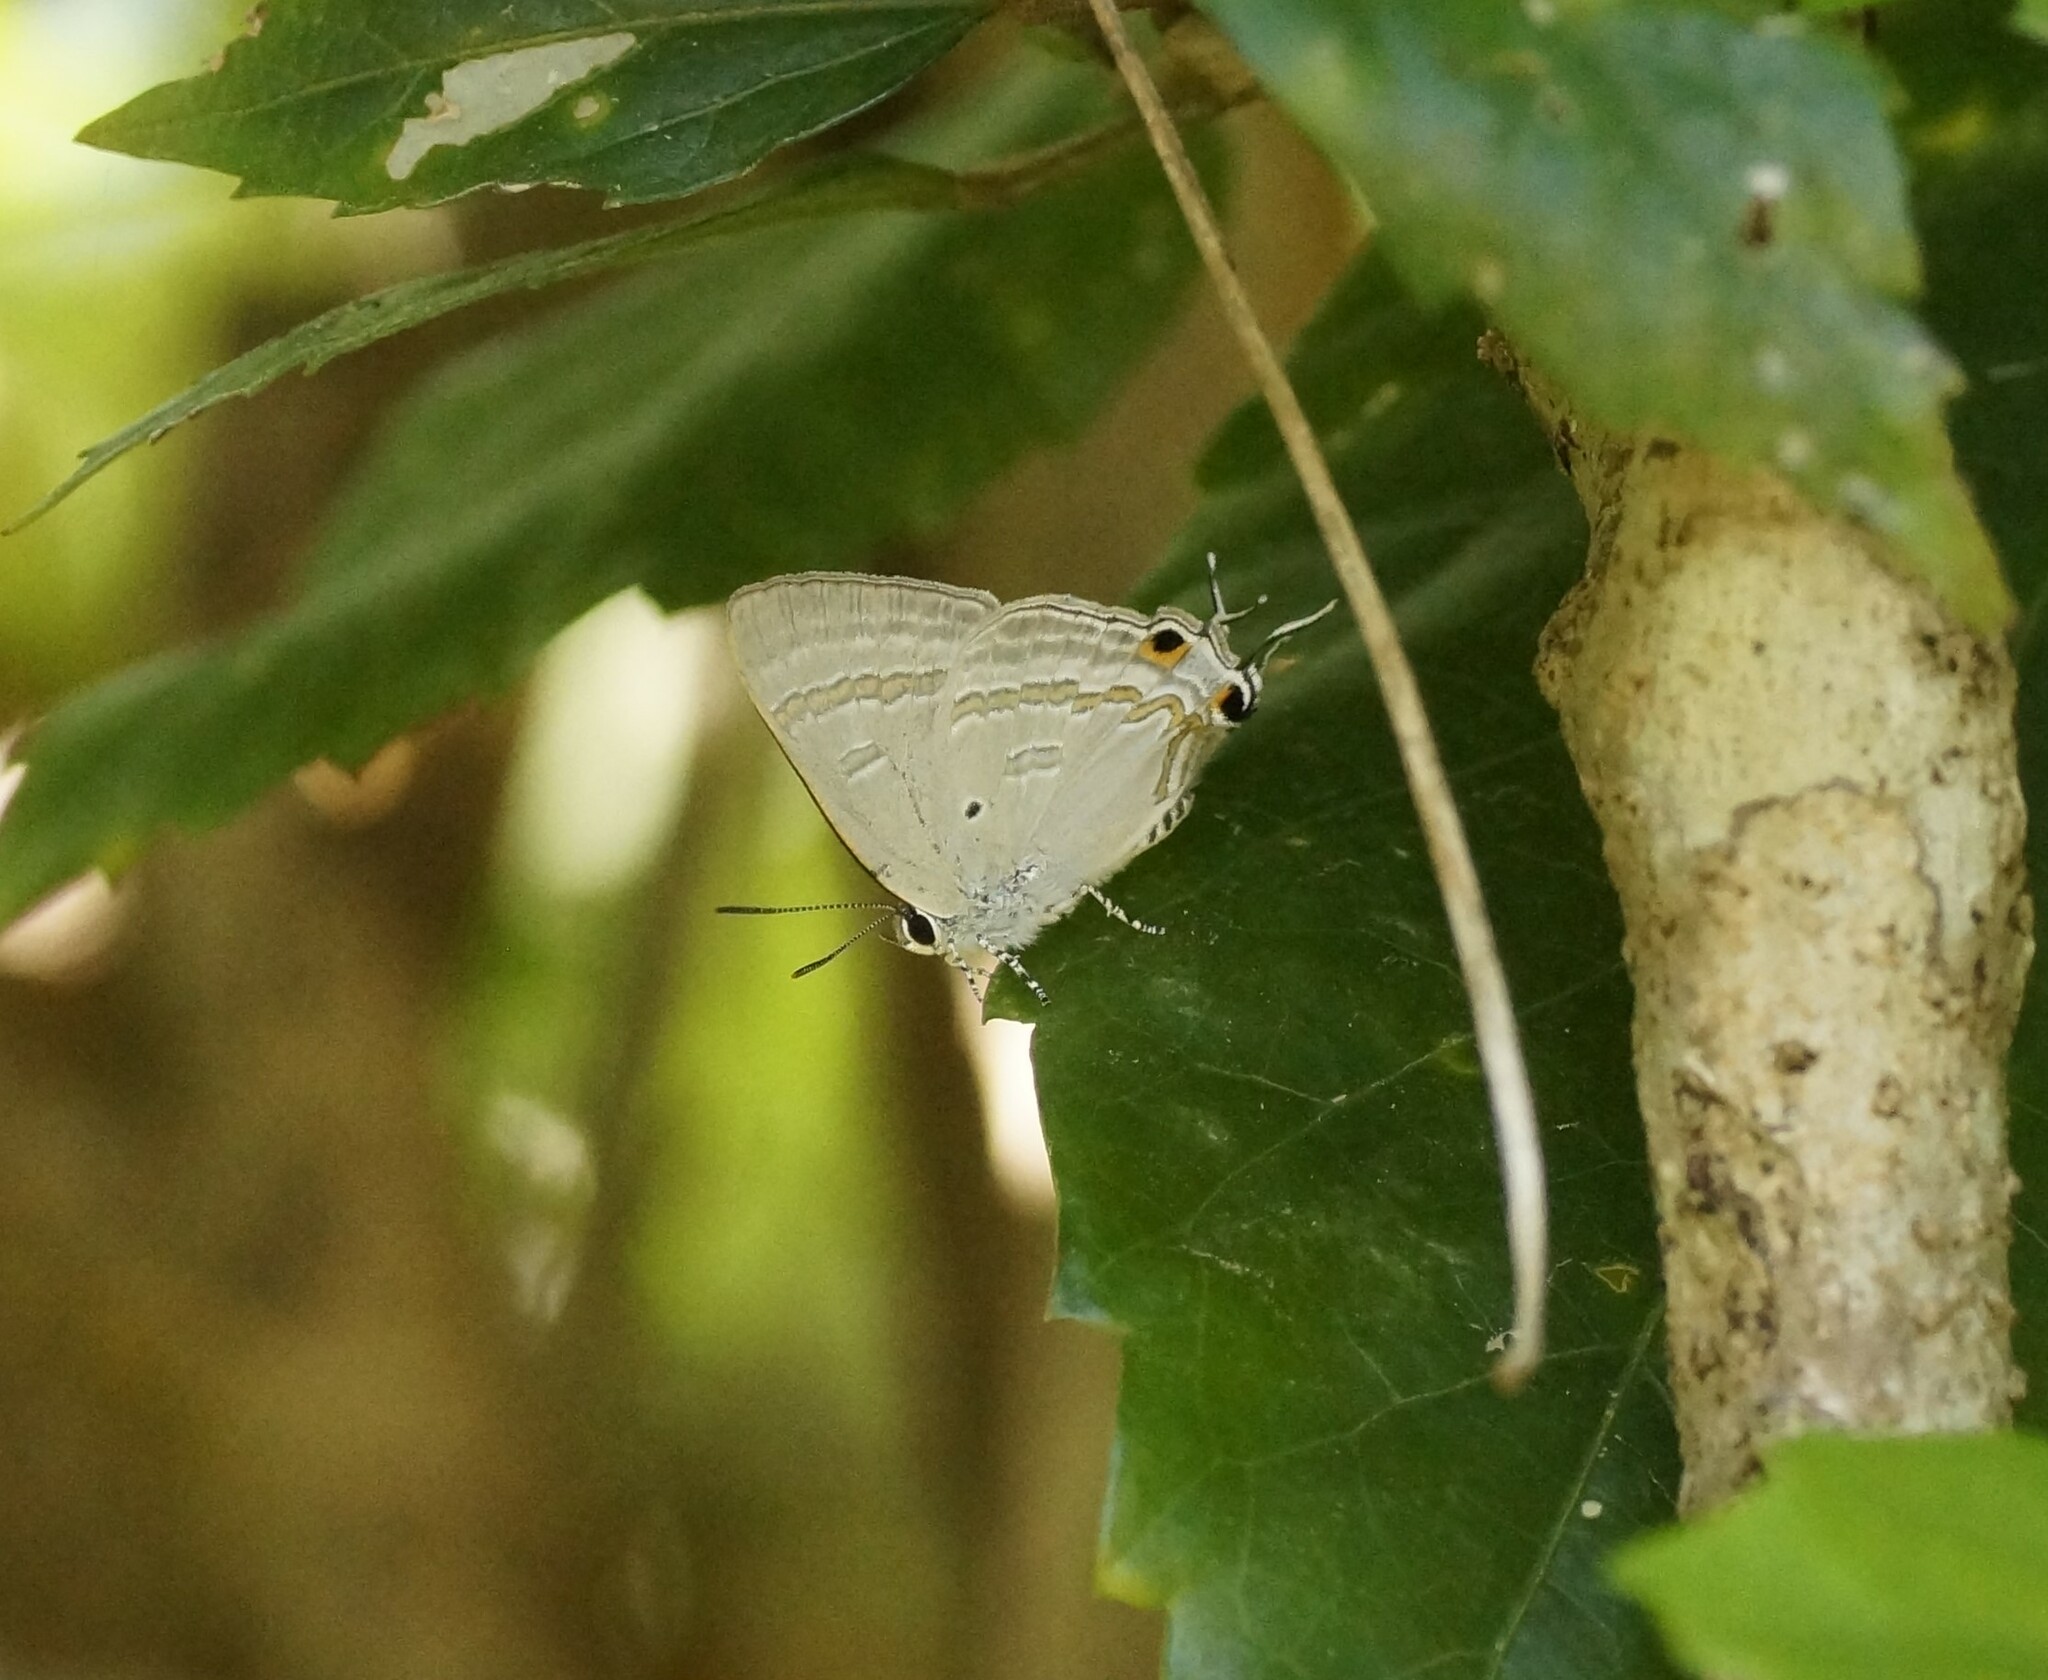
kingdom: Animalia
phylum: Arthropoda
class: Insecta
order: Lepidoptera
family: Lycaenidae
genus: Hypolycaena
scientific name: Hypolycaena phorbas
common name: Black-spotted flash
